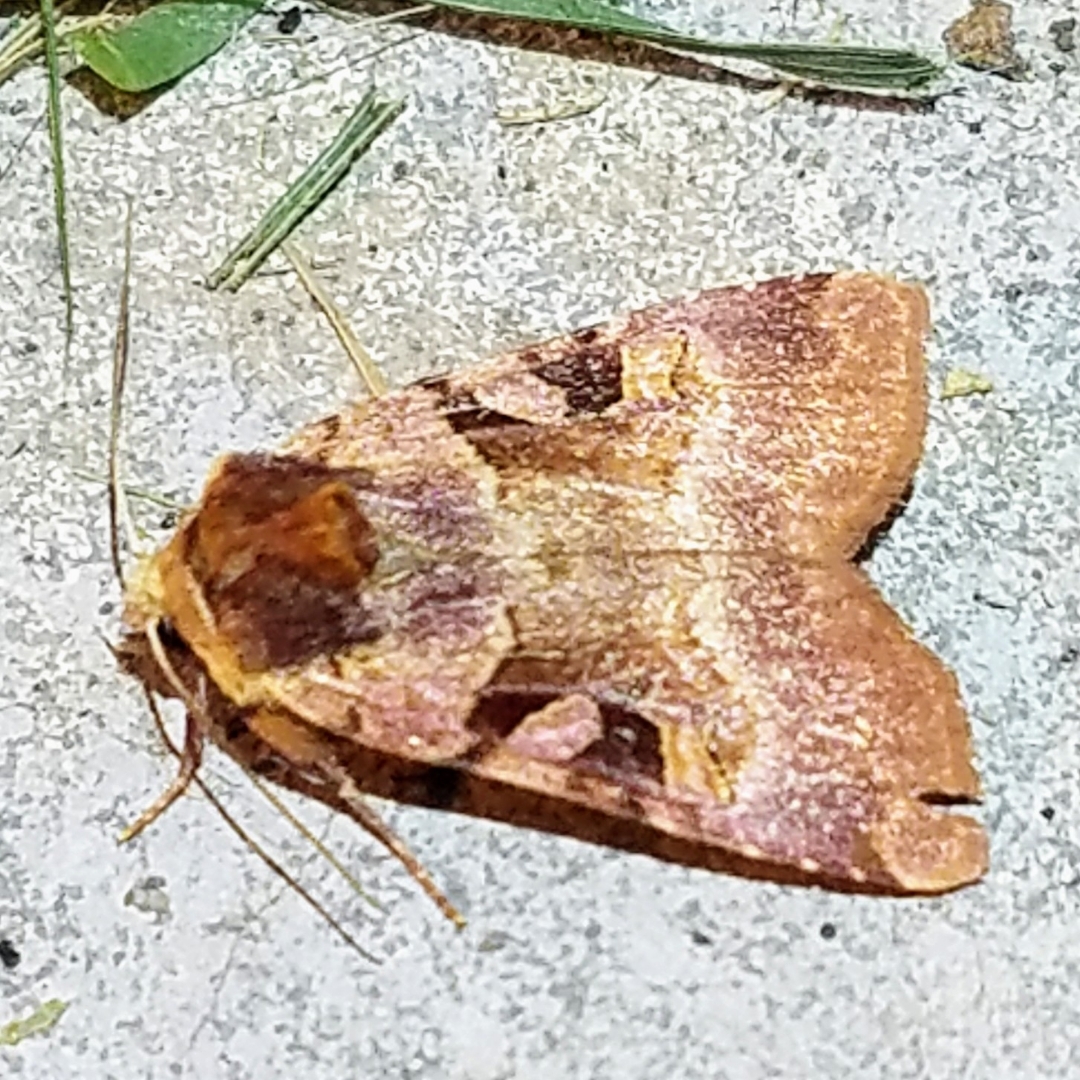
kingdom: Animalia
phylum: Arthropoda
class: Insecta
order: Lepidoptera
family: Noctuidae
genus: Xestia
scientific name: Xestia oblata
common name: Rosy dart
